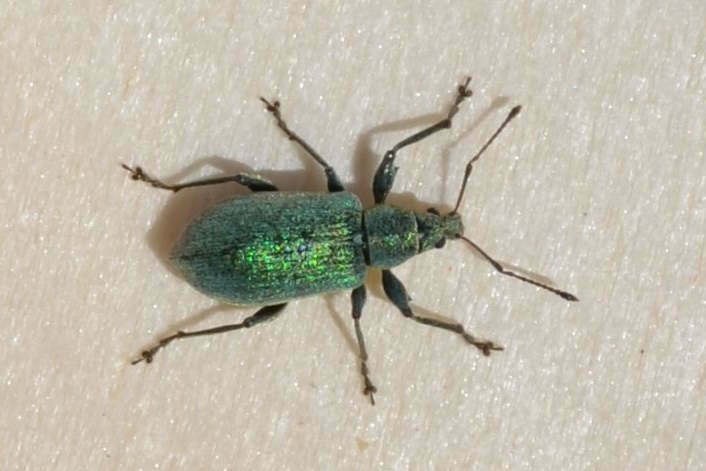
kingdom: Animalia
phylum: Arthropoda
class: Insecta
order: Coleoptera
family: Curculionidae
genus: Phyllobius
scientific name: Phyllobius pomaceus
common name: Green nettle weevil
